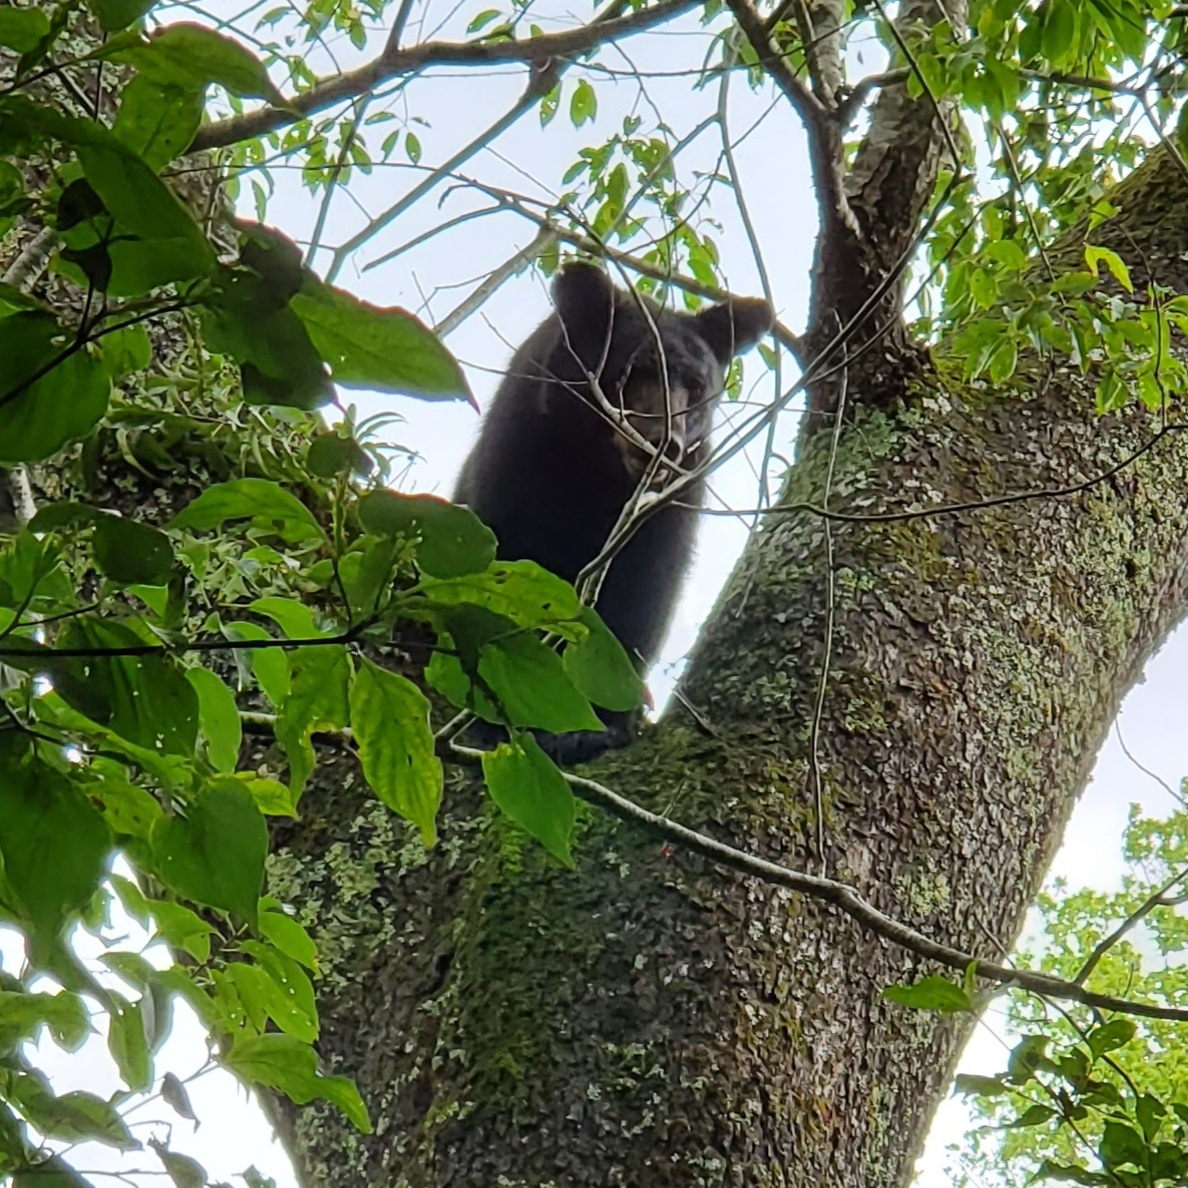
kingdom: Animalia
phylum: Chordata
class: Mammalia
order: Carnivora
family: Ursidae
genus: Ursus
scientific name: Ursus americanus
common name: American black bear
